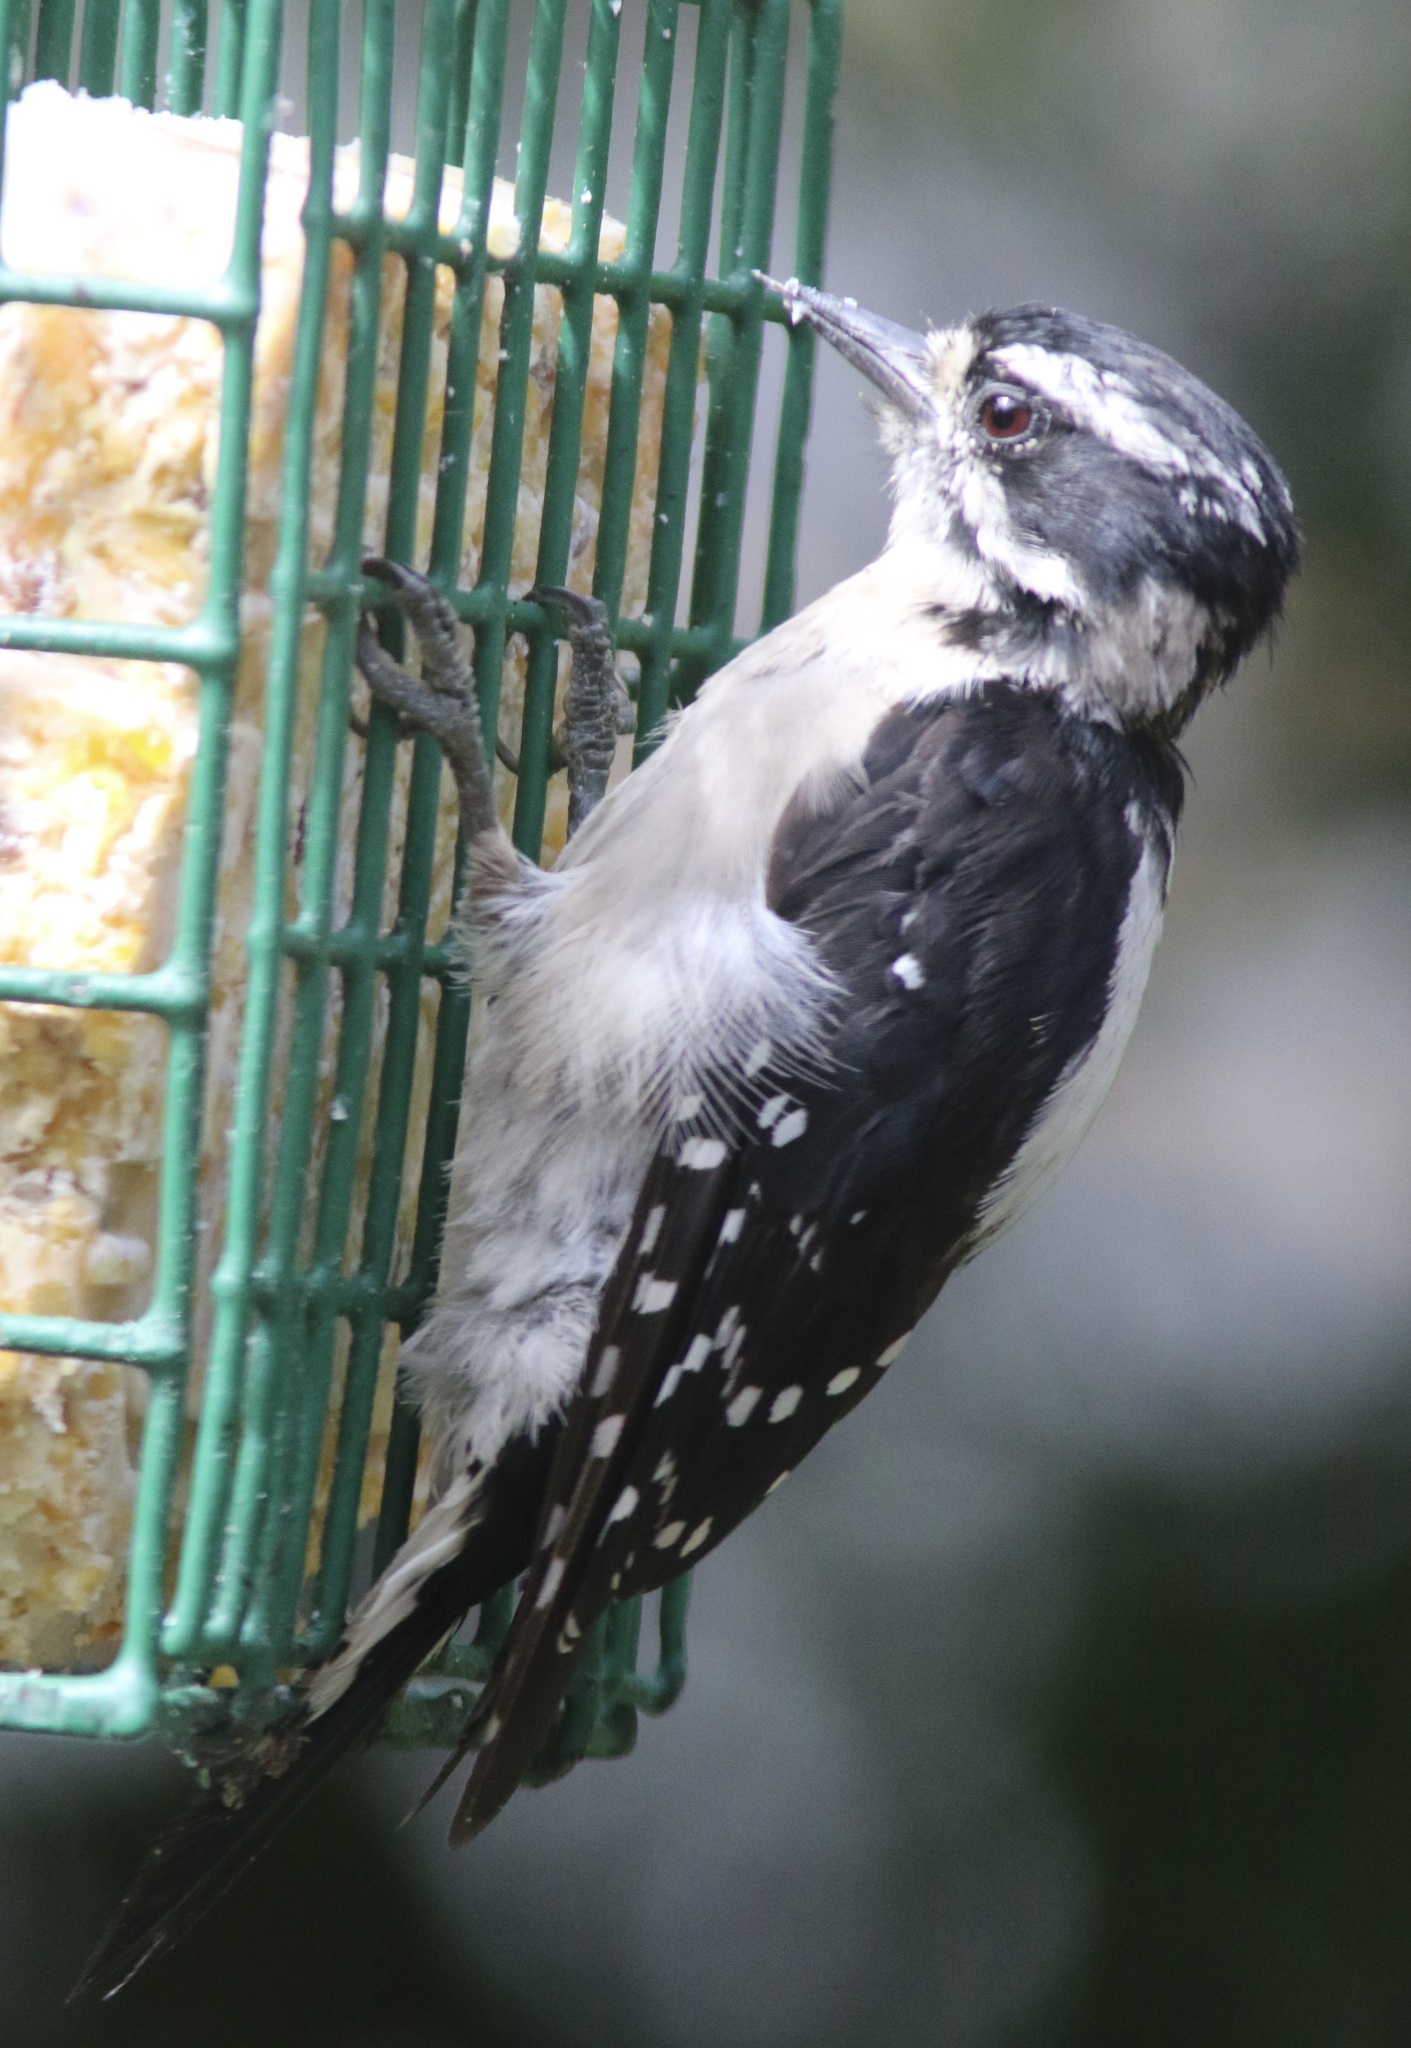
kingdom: Animalia
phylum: Chordata
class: Aves
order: Piciformes
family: Picidae
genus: Dryobates
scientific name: Dryobates pubescens
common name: Downy woodpecker
